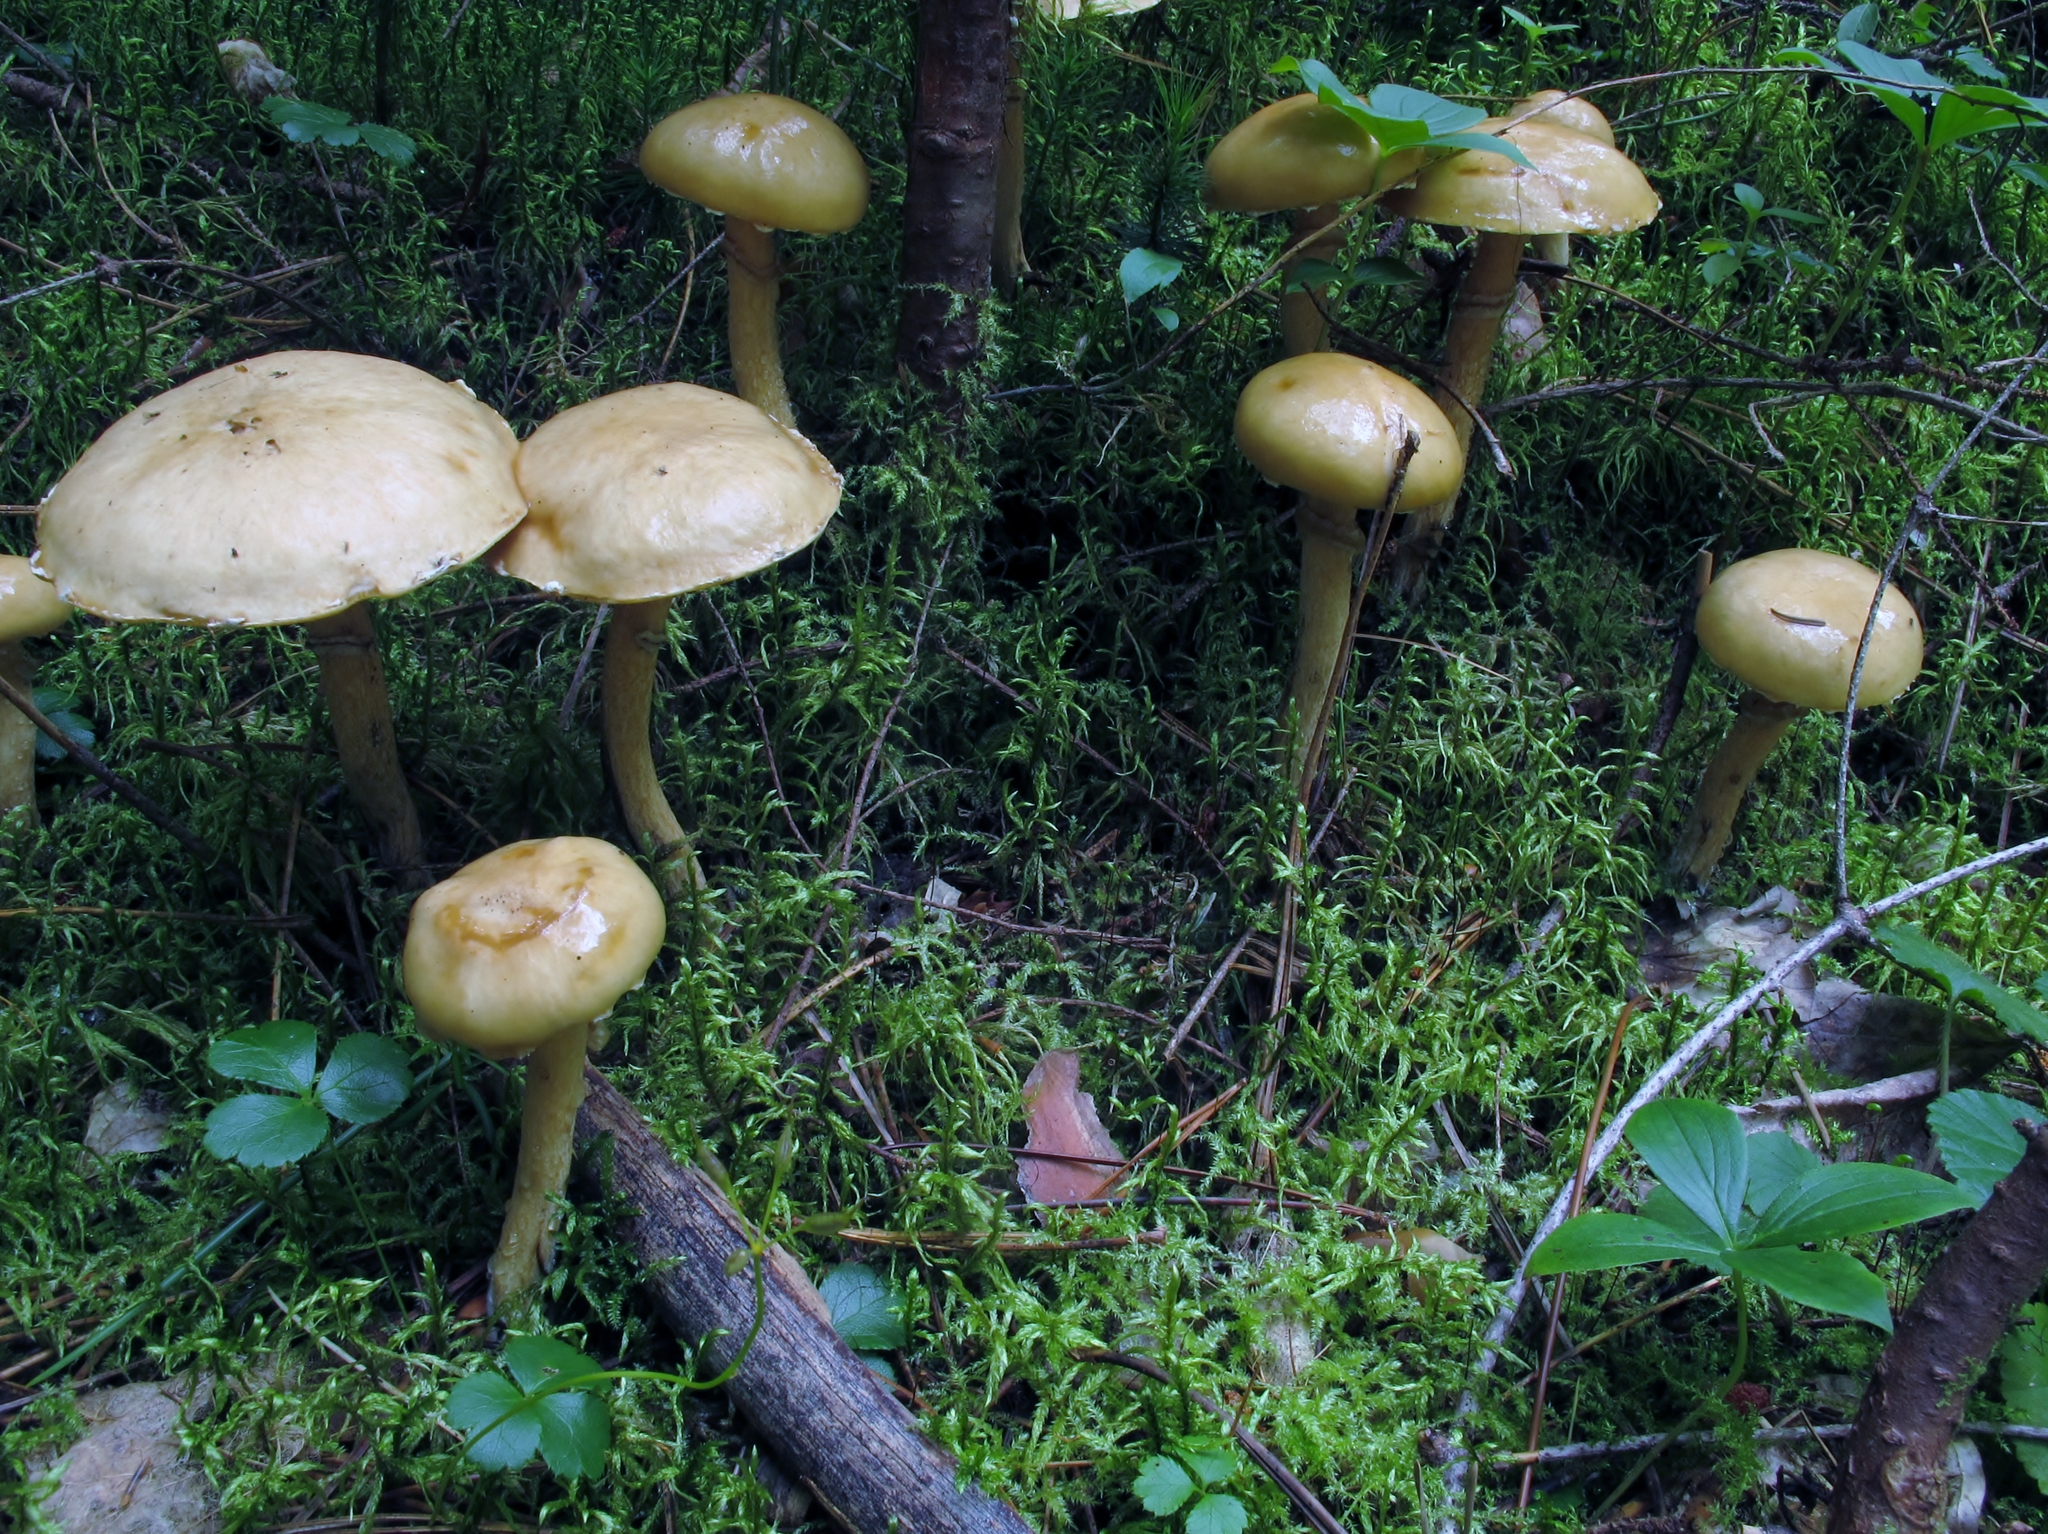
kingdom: Fungi
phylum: Basidiomycota
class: Agaricomycetes
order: Boletales
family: Suillaceae
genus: Suillus
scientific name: Suillus acidus
